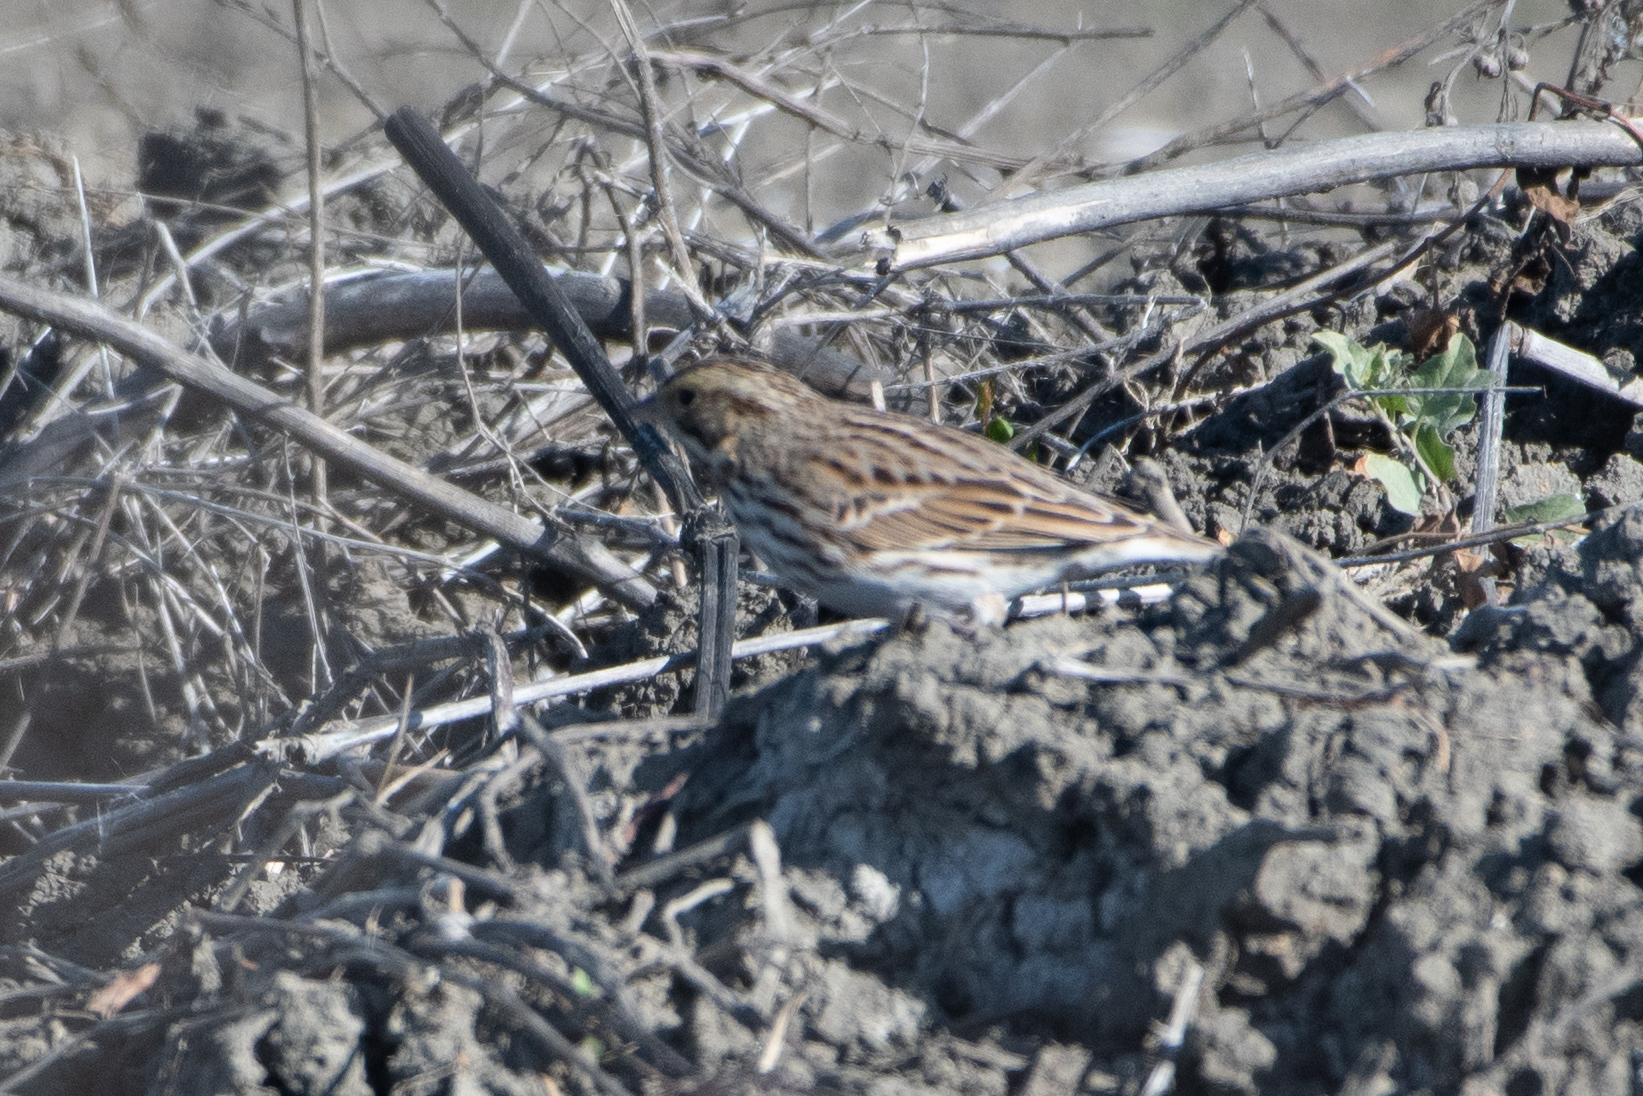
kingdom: Animalia
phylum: Chordata
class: Aves
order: Passeriformes
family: Passerellidae
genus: Passerculus
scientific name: Passerculus sandwichensis
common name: Savannah sparrow
